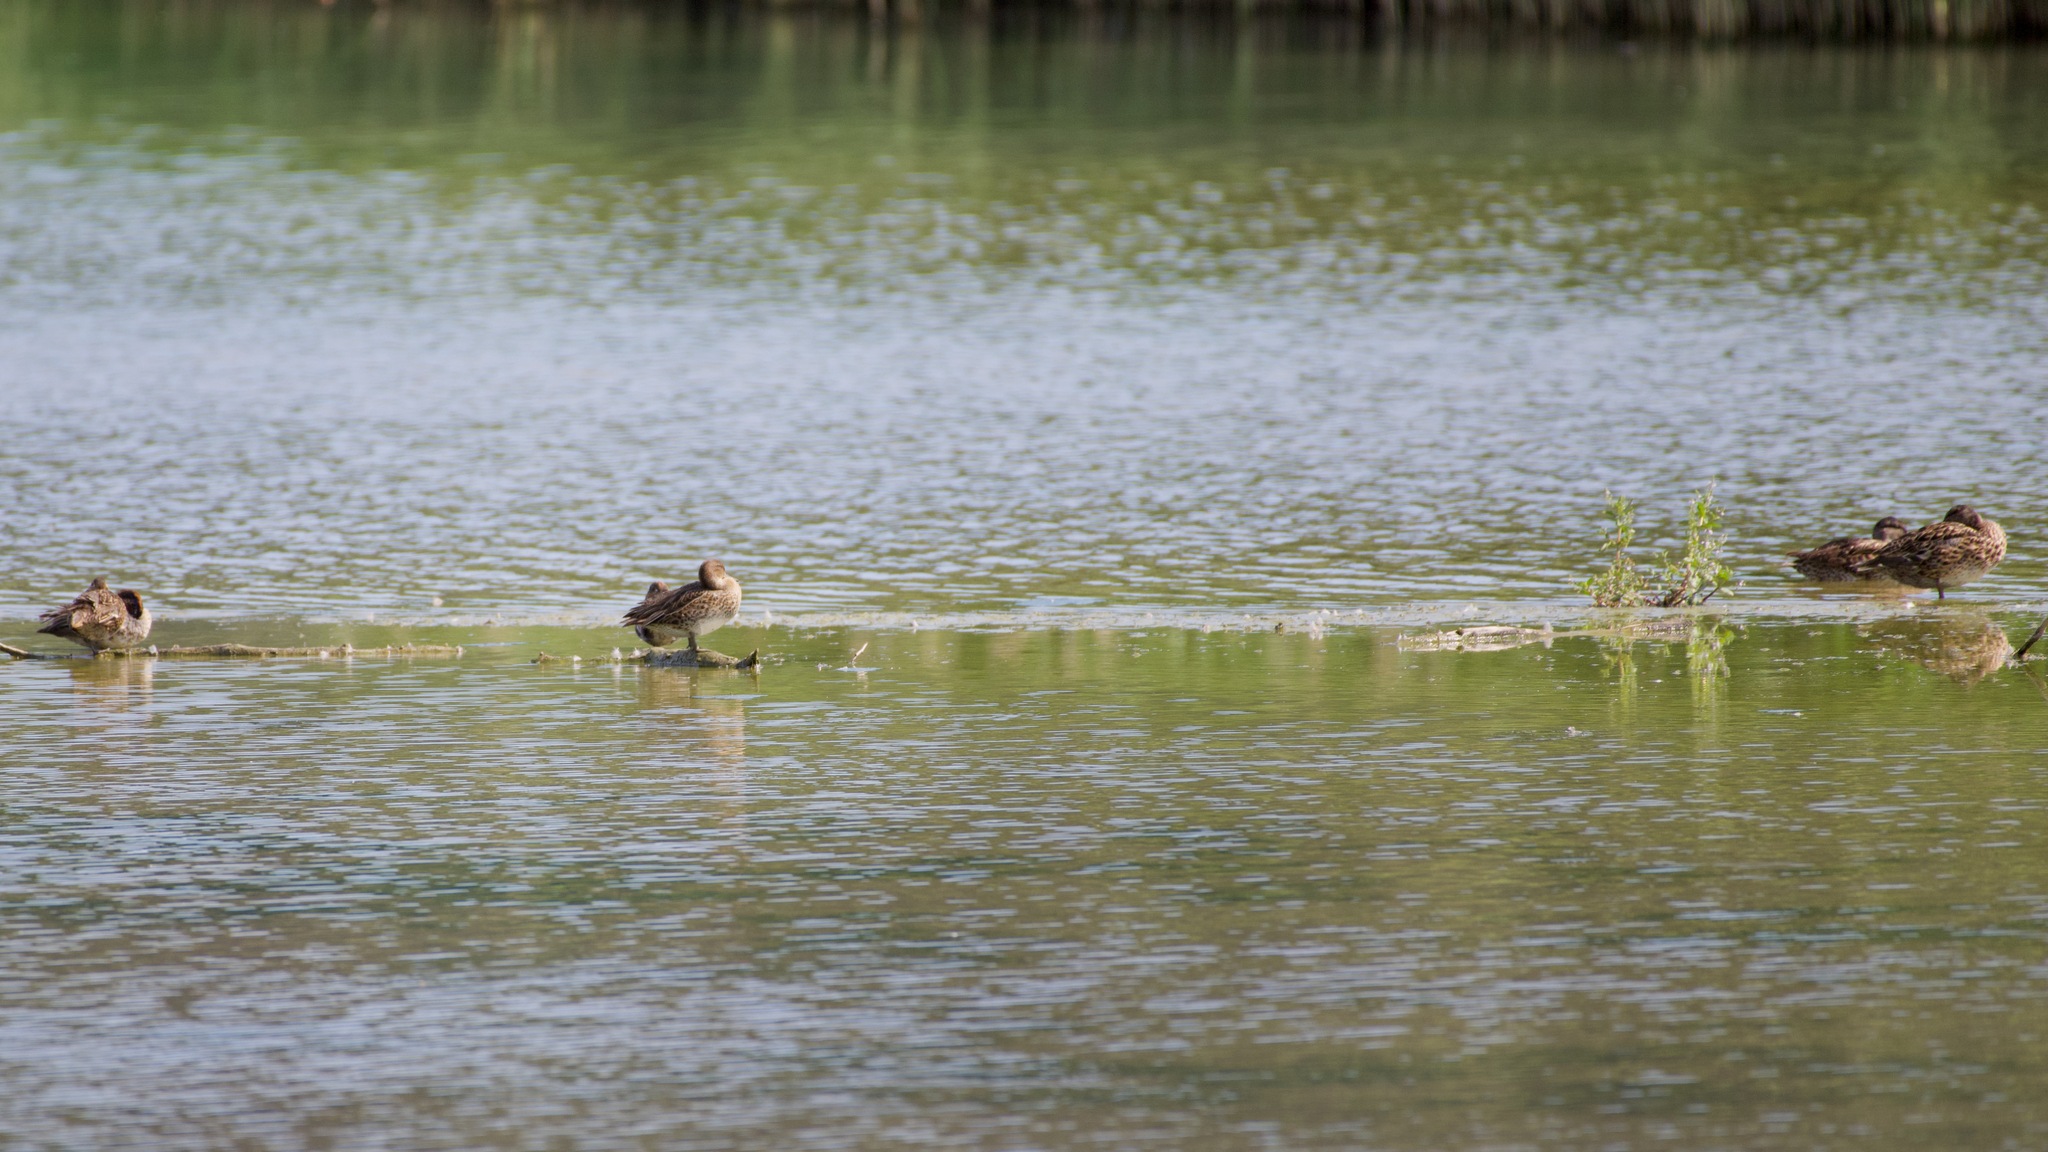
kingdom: Animalia
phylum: Chordata
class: Aves
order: Anseriformes
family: Anatidae
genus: Anas
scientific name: Anas crecca
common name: Eurasian teal
